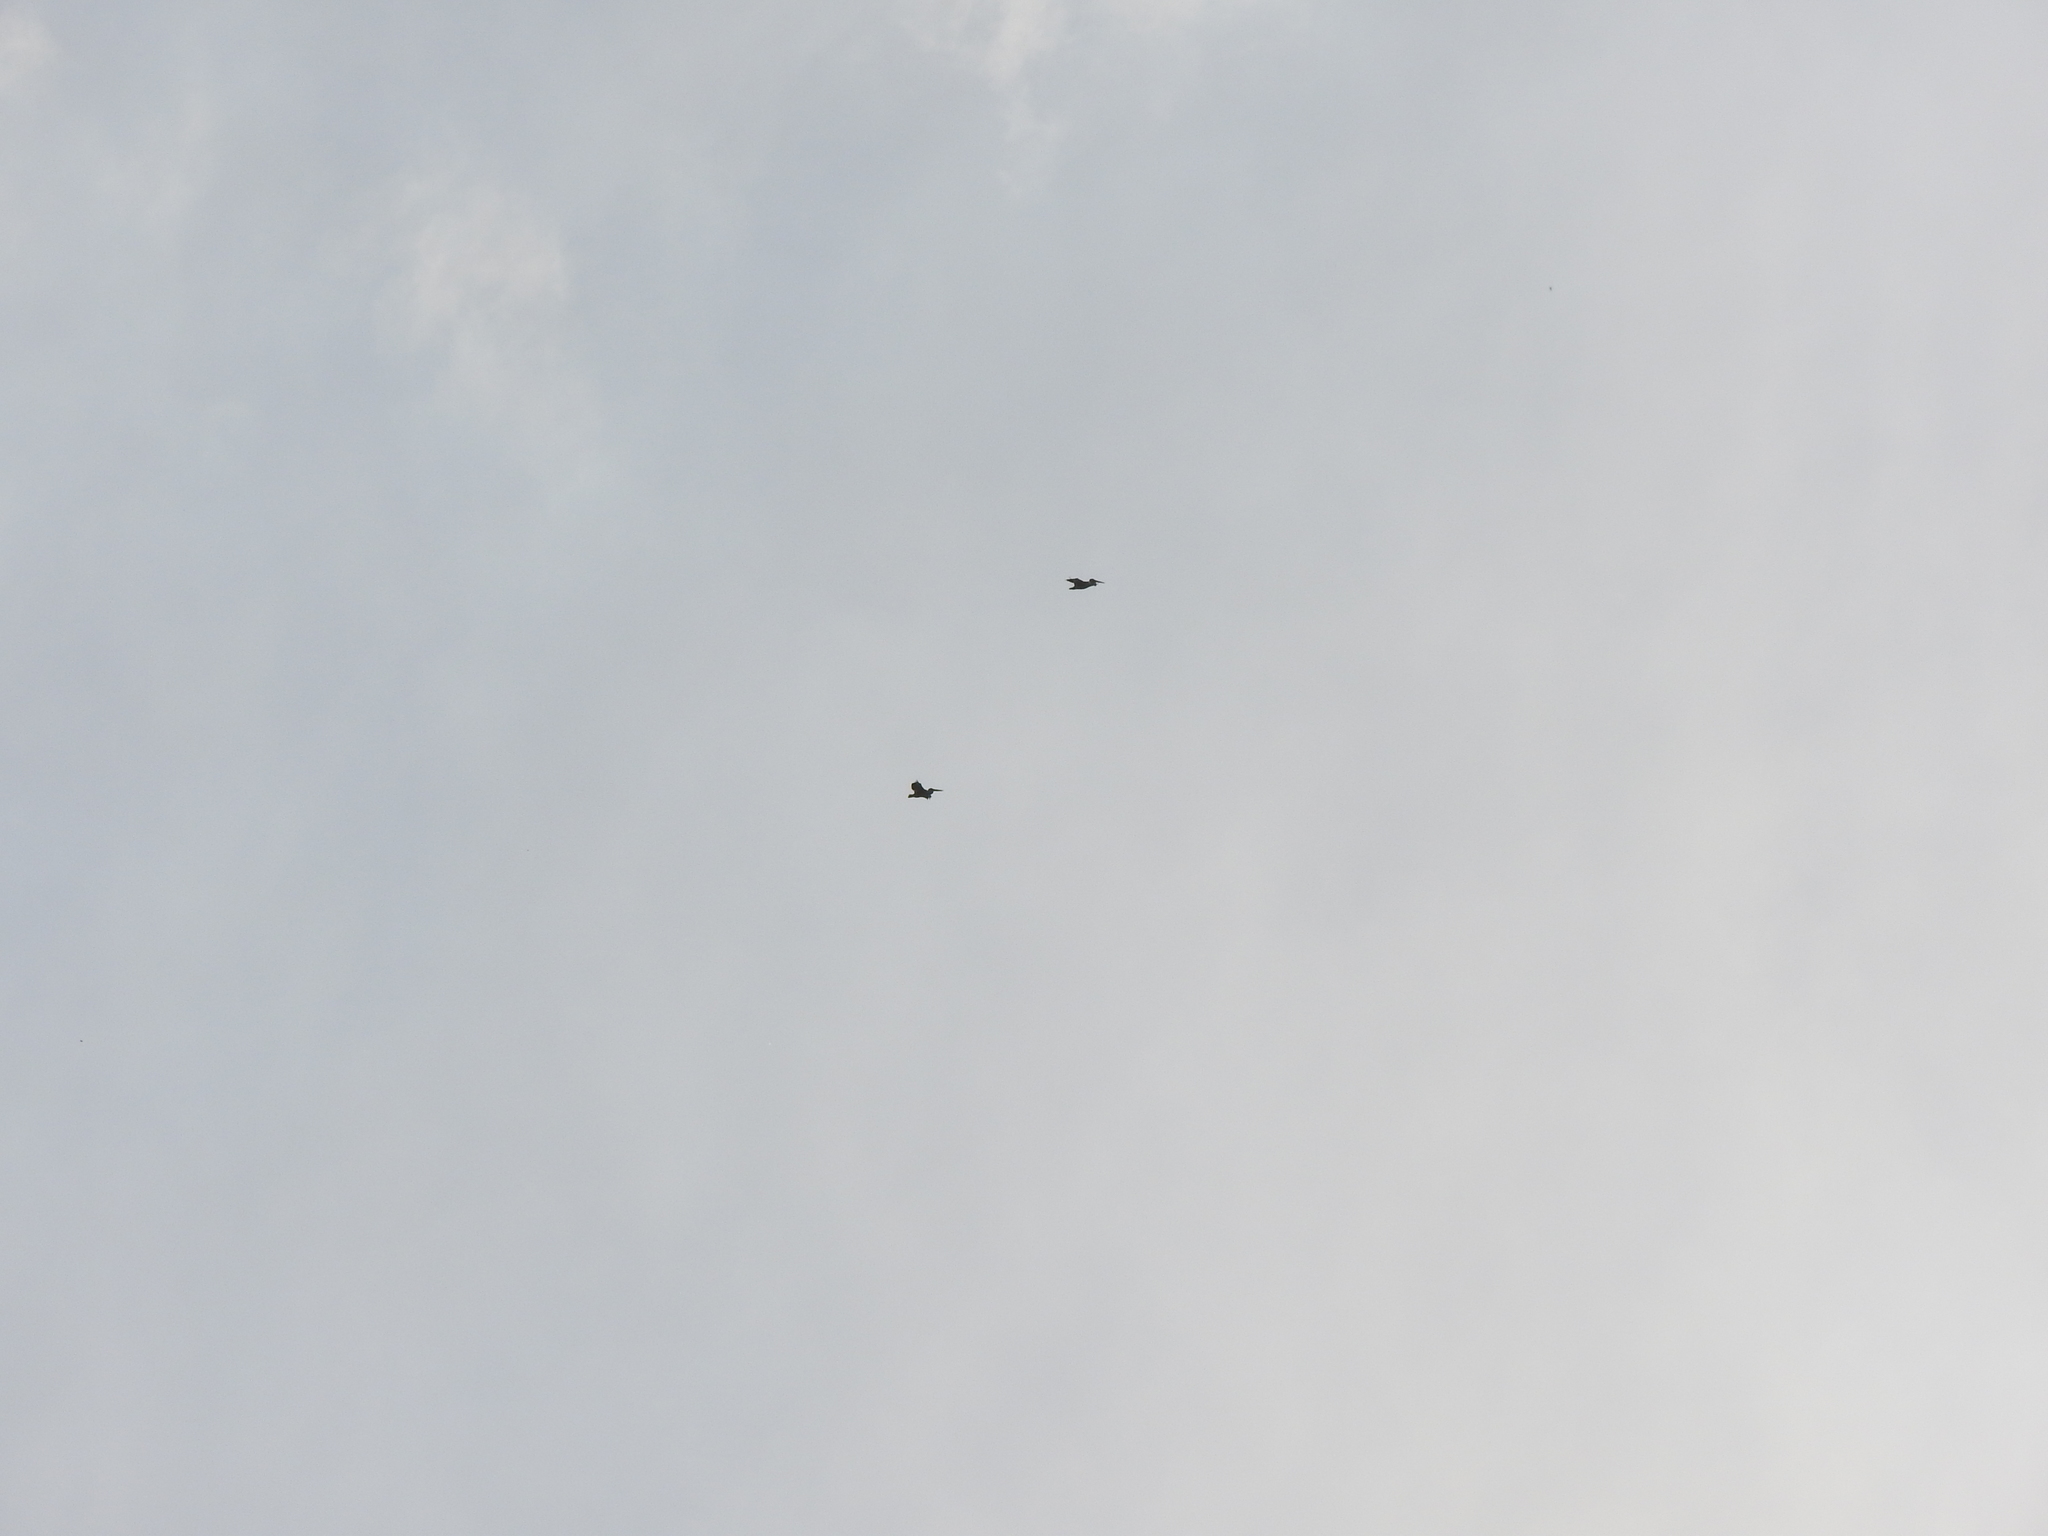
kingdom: Animalia
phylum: Chordata
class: Aves
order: Pelecaniformes
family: Pelecanidae
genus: Pelecanus
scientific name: Pelecanus erythrorhynchos
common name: American white pelican
